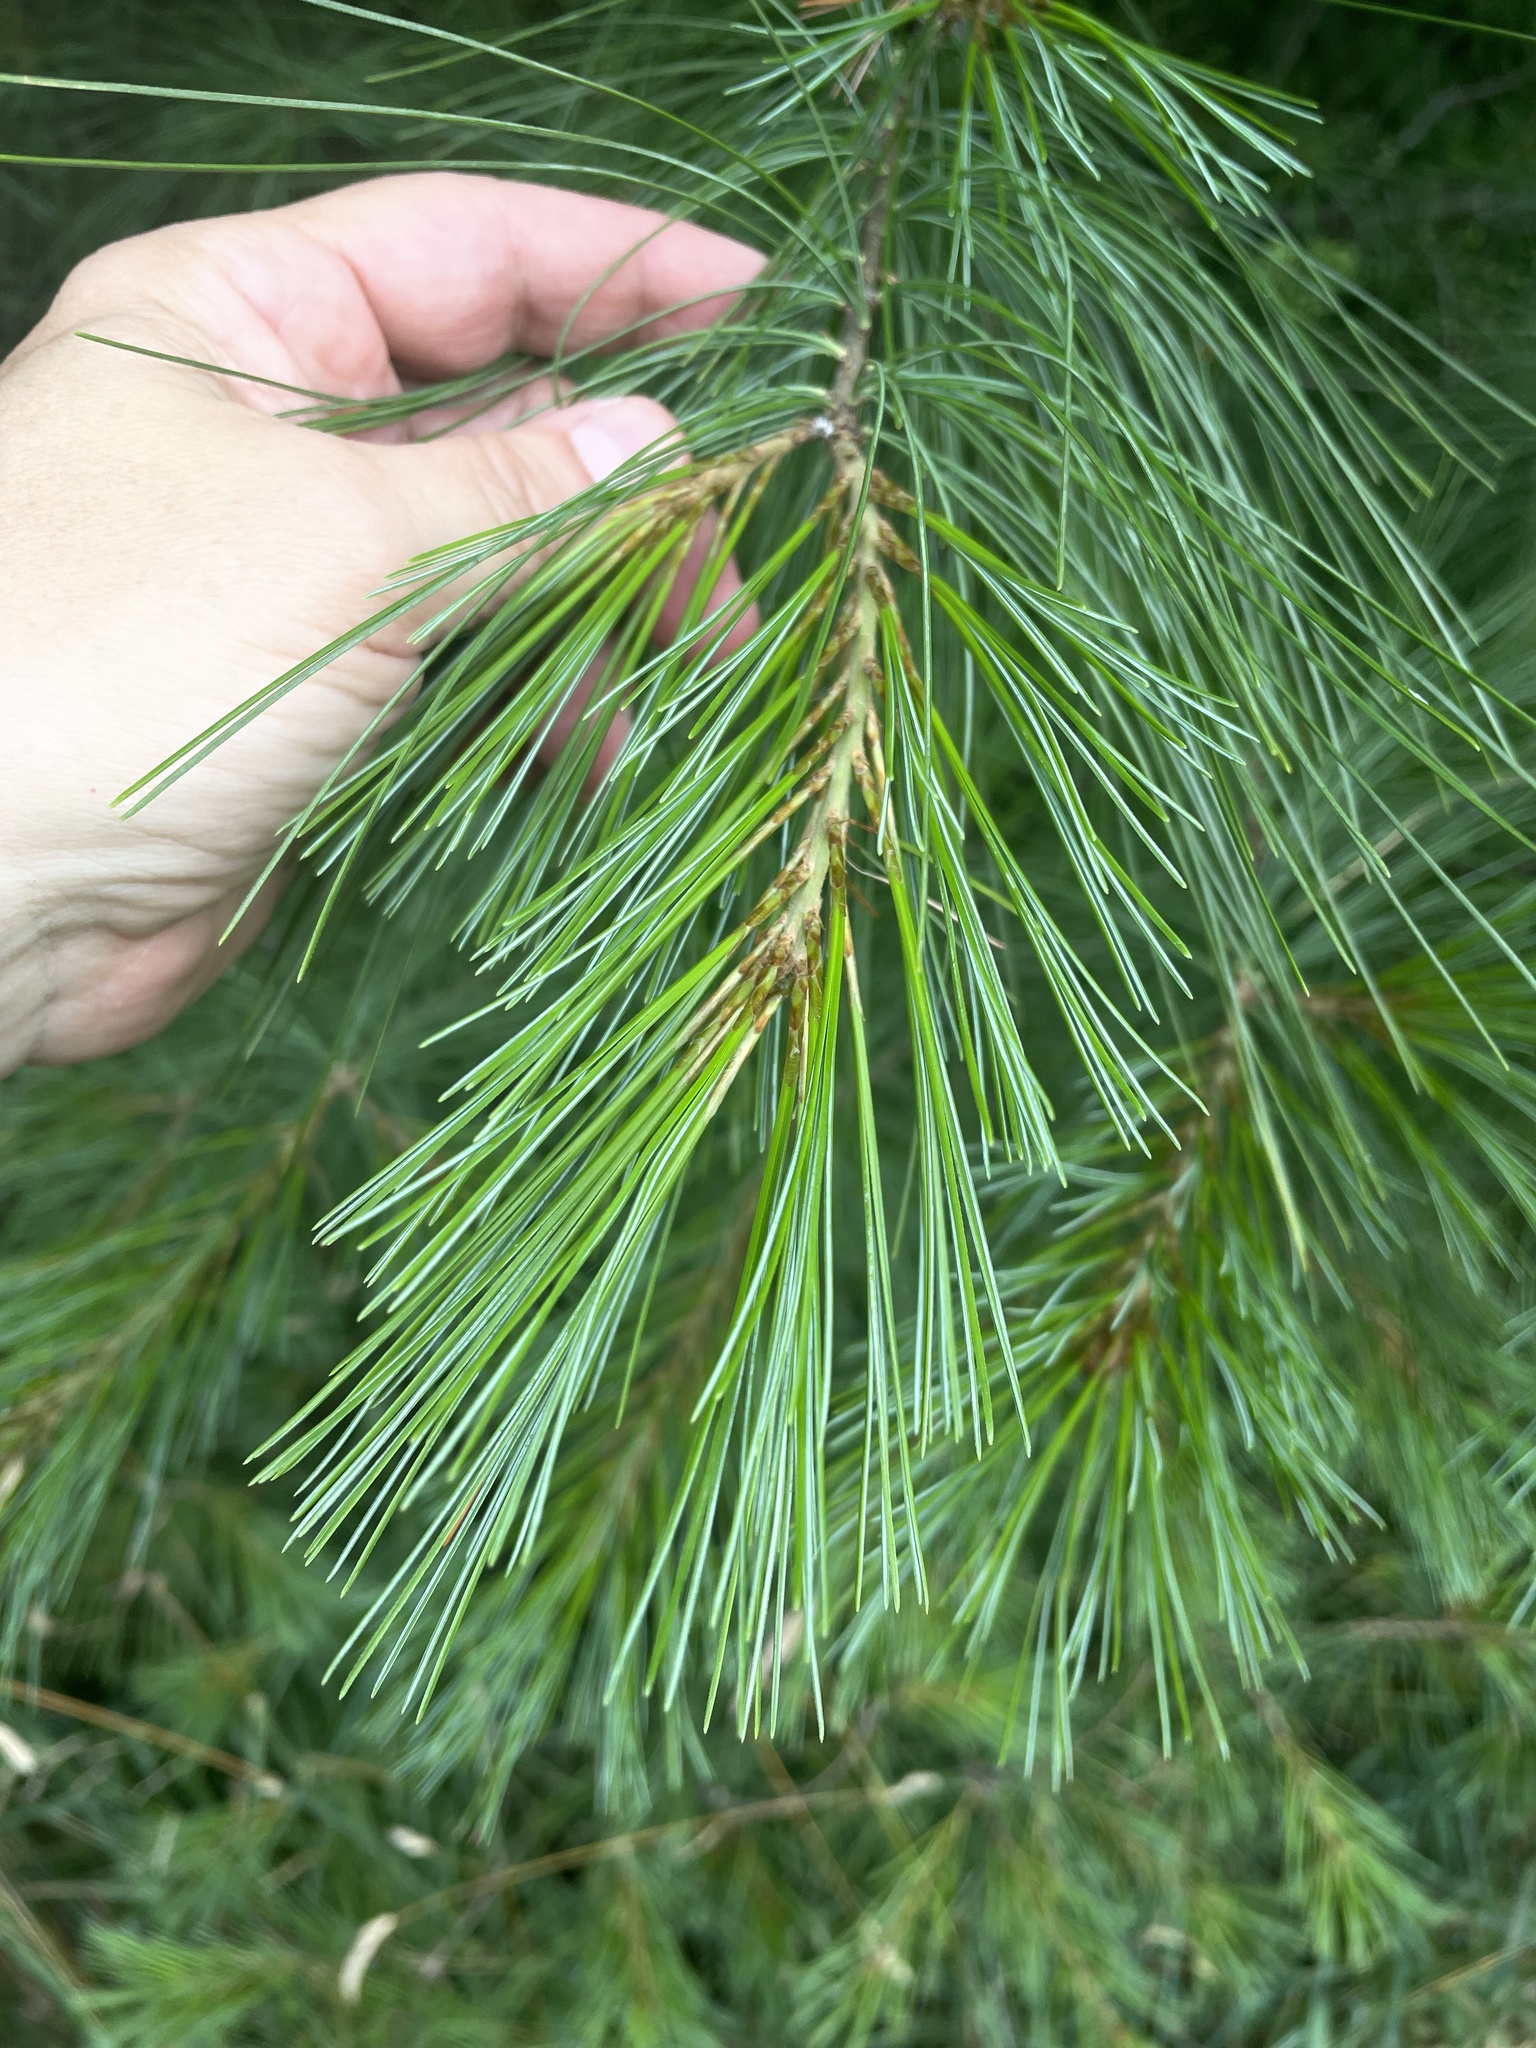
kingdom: Plantae
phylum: Tracheophyta
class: Pinopsida
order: Pinales
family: Pinaceae
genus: Pinus
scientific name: Pinus strobus
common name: Weymouth pine
